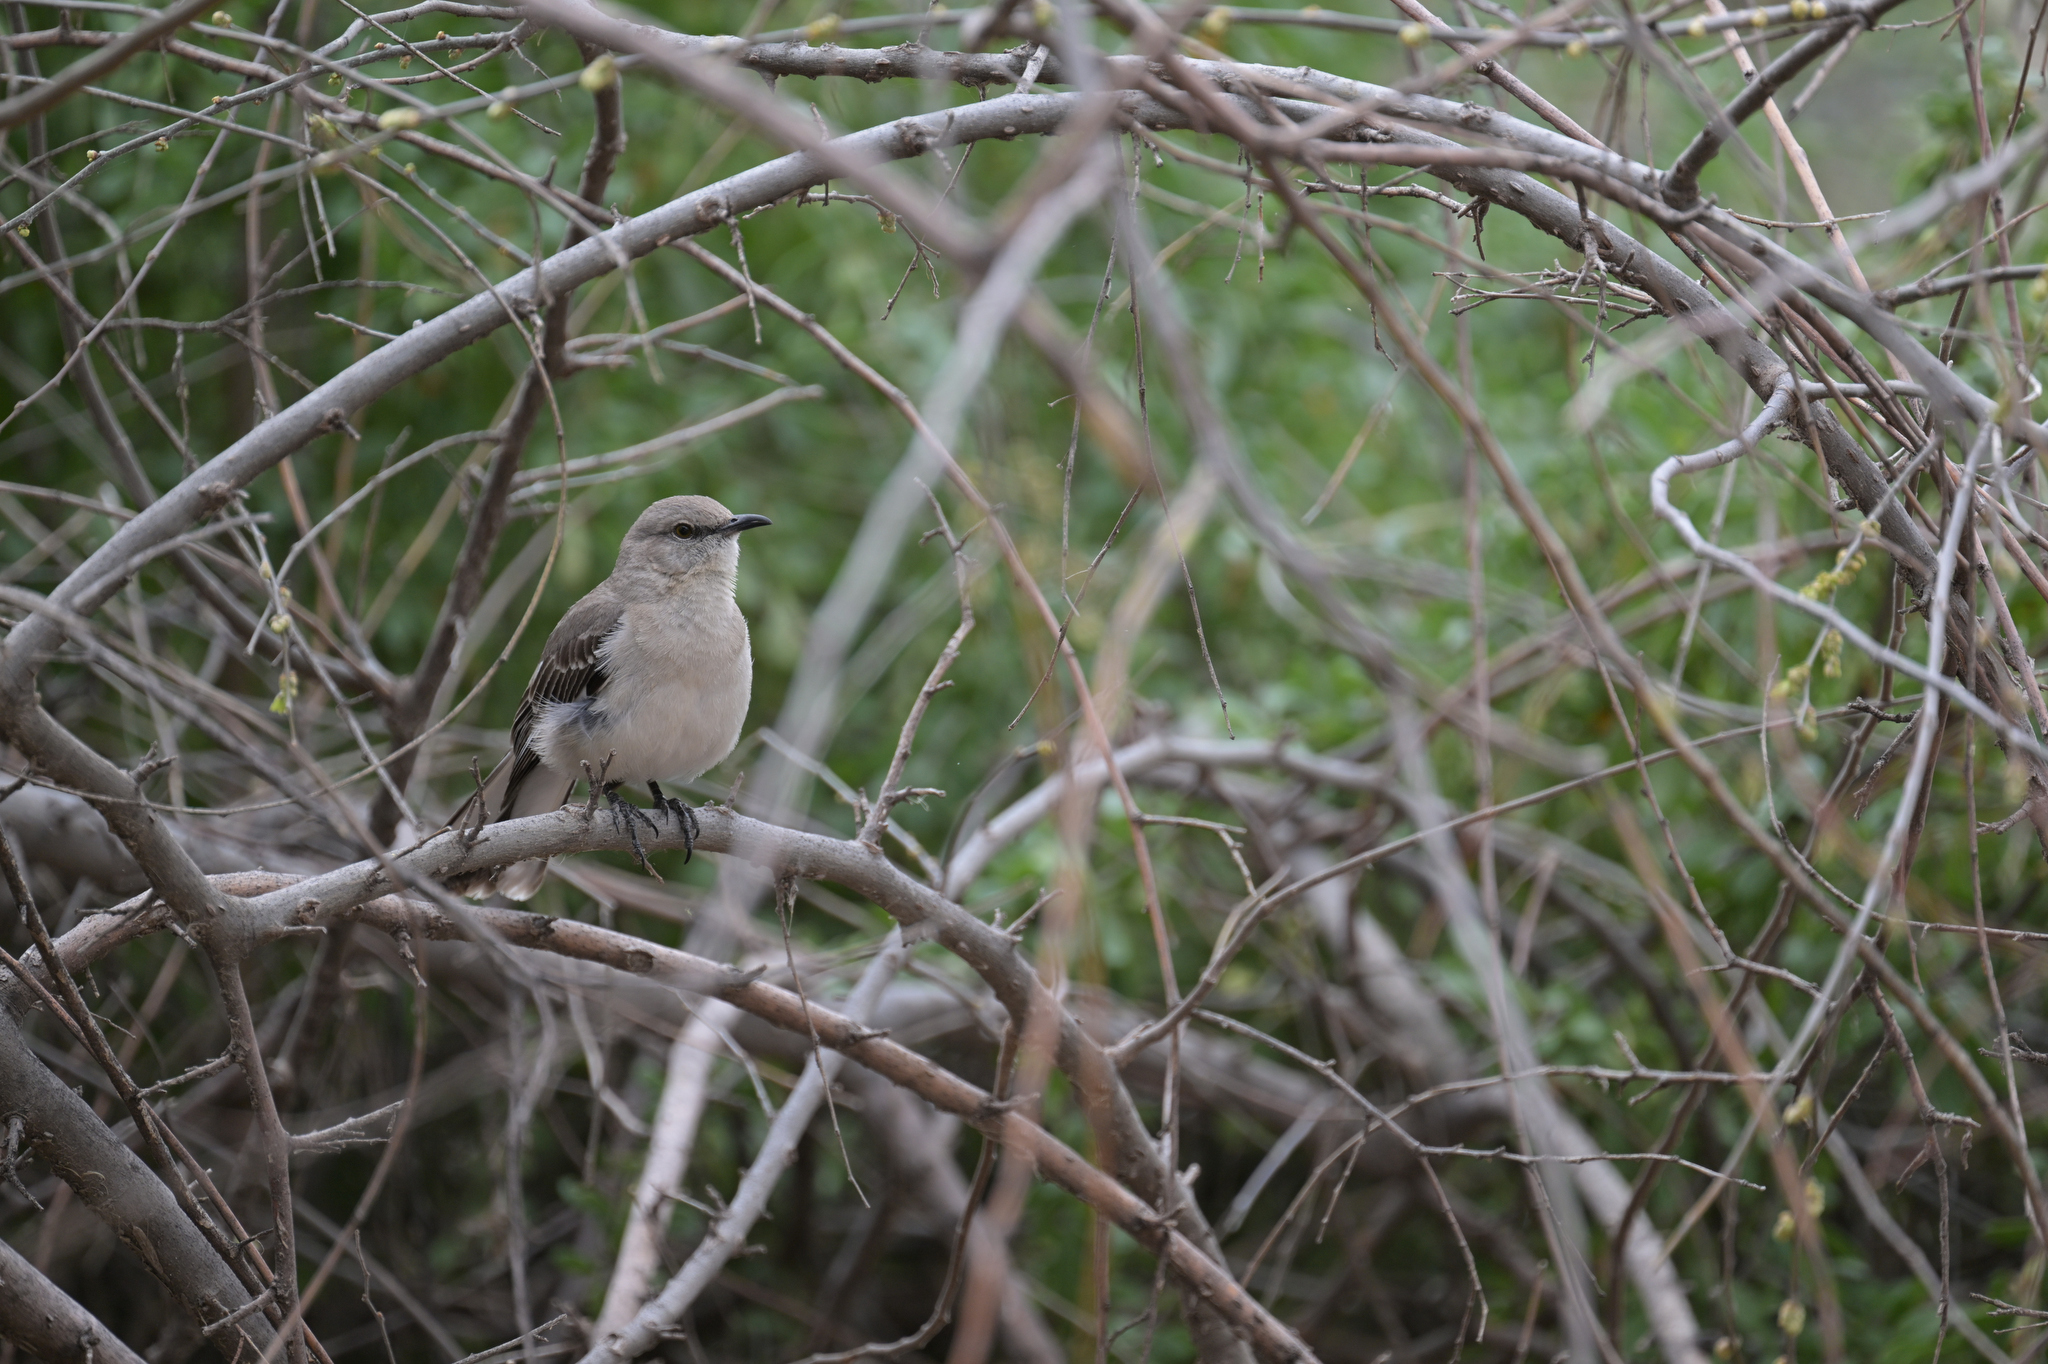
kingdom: Animalia
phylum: Chordata
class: Aves
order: Passeriformes
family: Mimidae
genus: Mimus
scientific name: Mimus polyglottos
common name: Northern mockingbird
